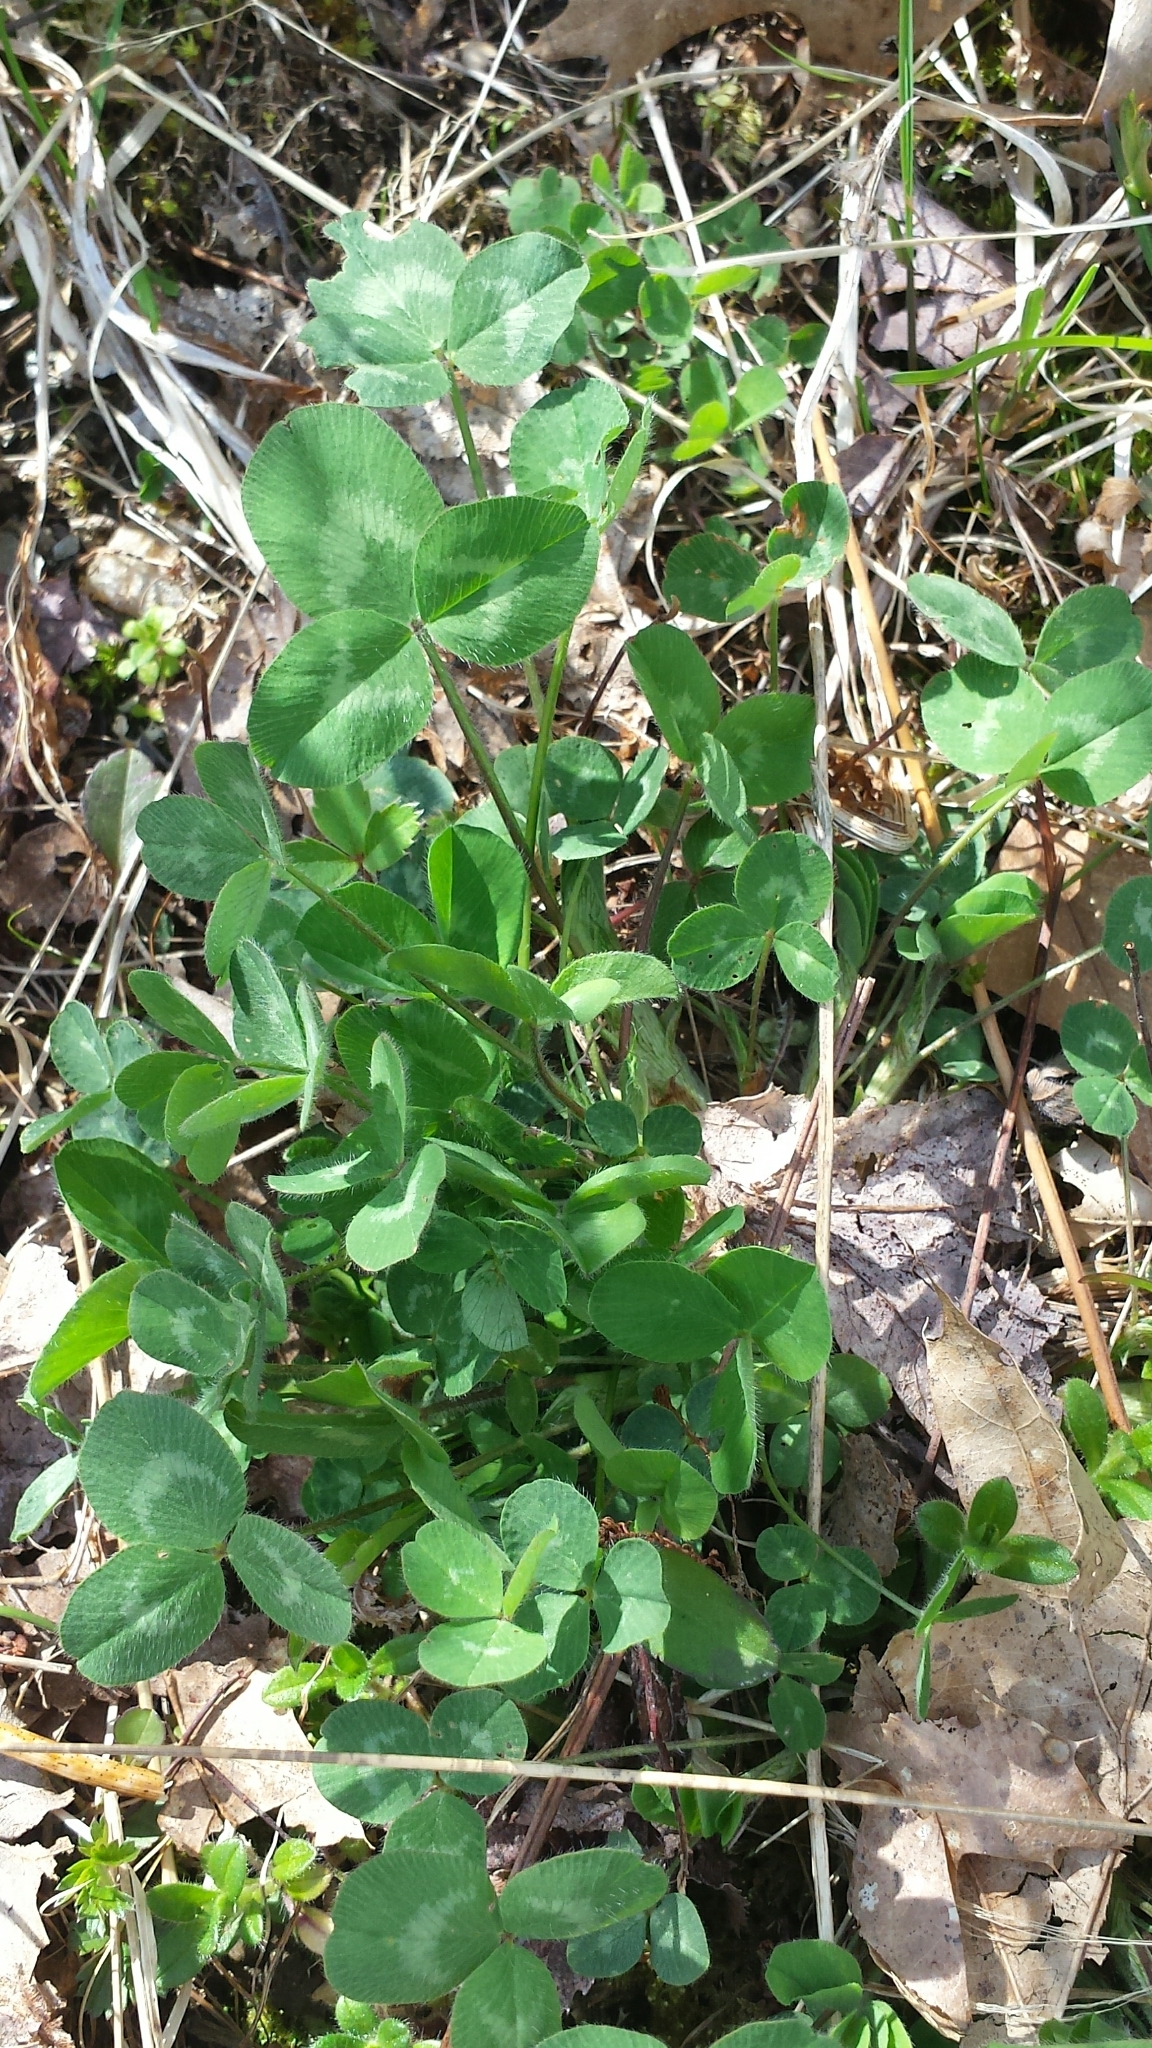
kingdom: Plantae
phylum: Tracheophyta
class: Magnoliopsida
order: Fabales
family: Fabaceae
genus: Trifolium
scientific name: Trifolium pratense
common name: Red clover
